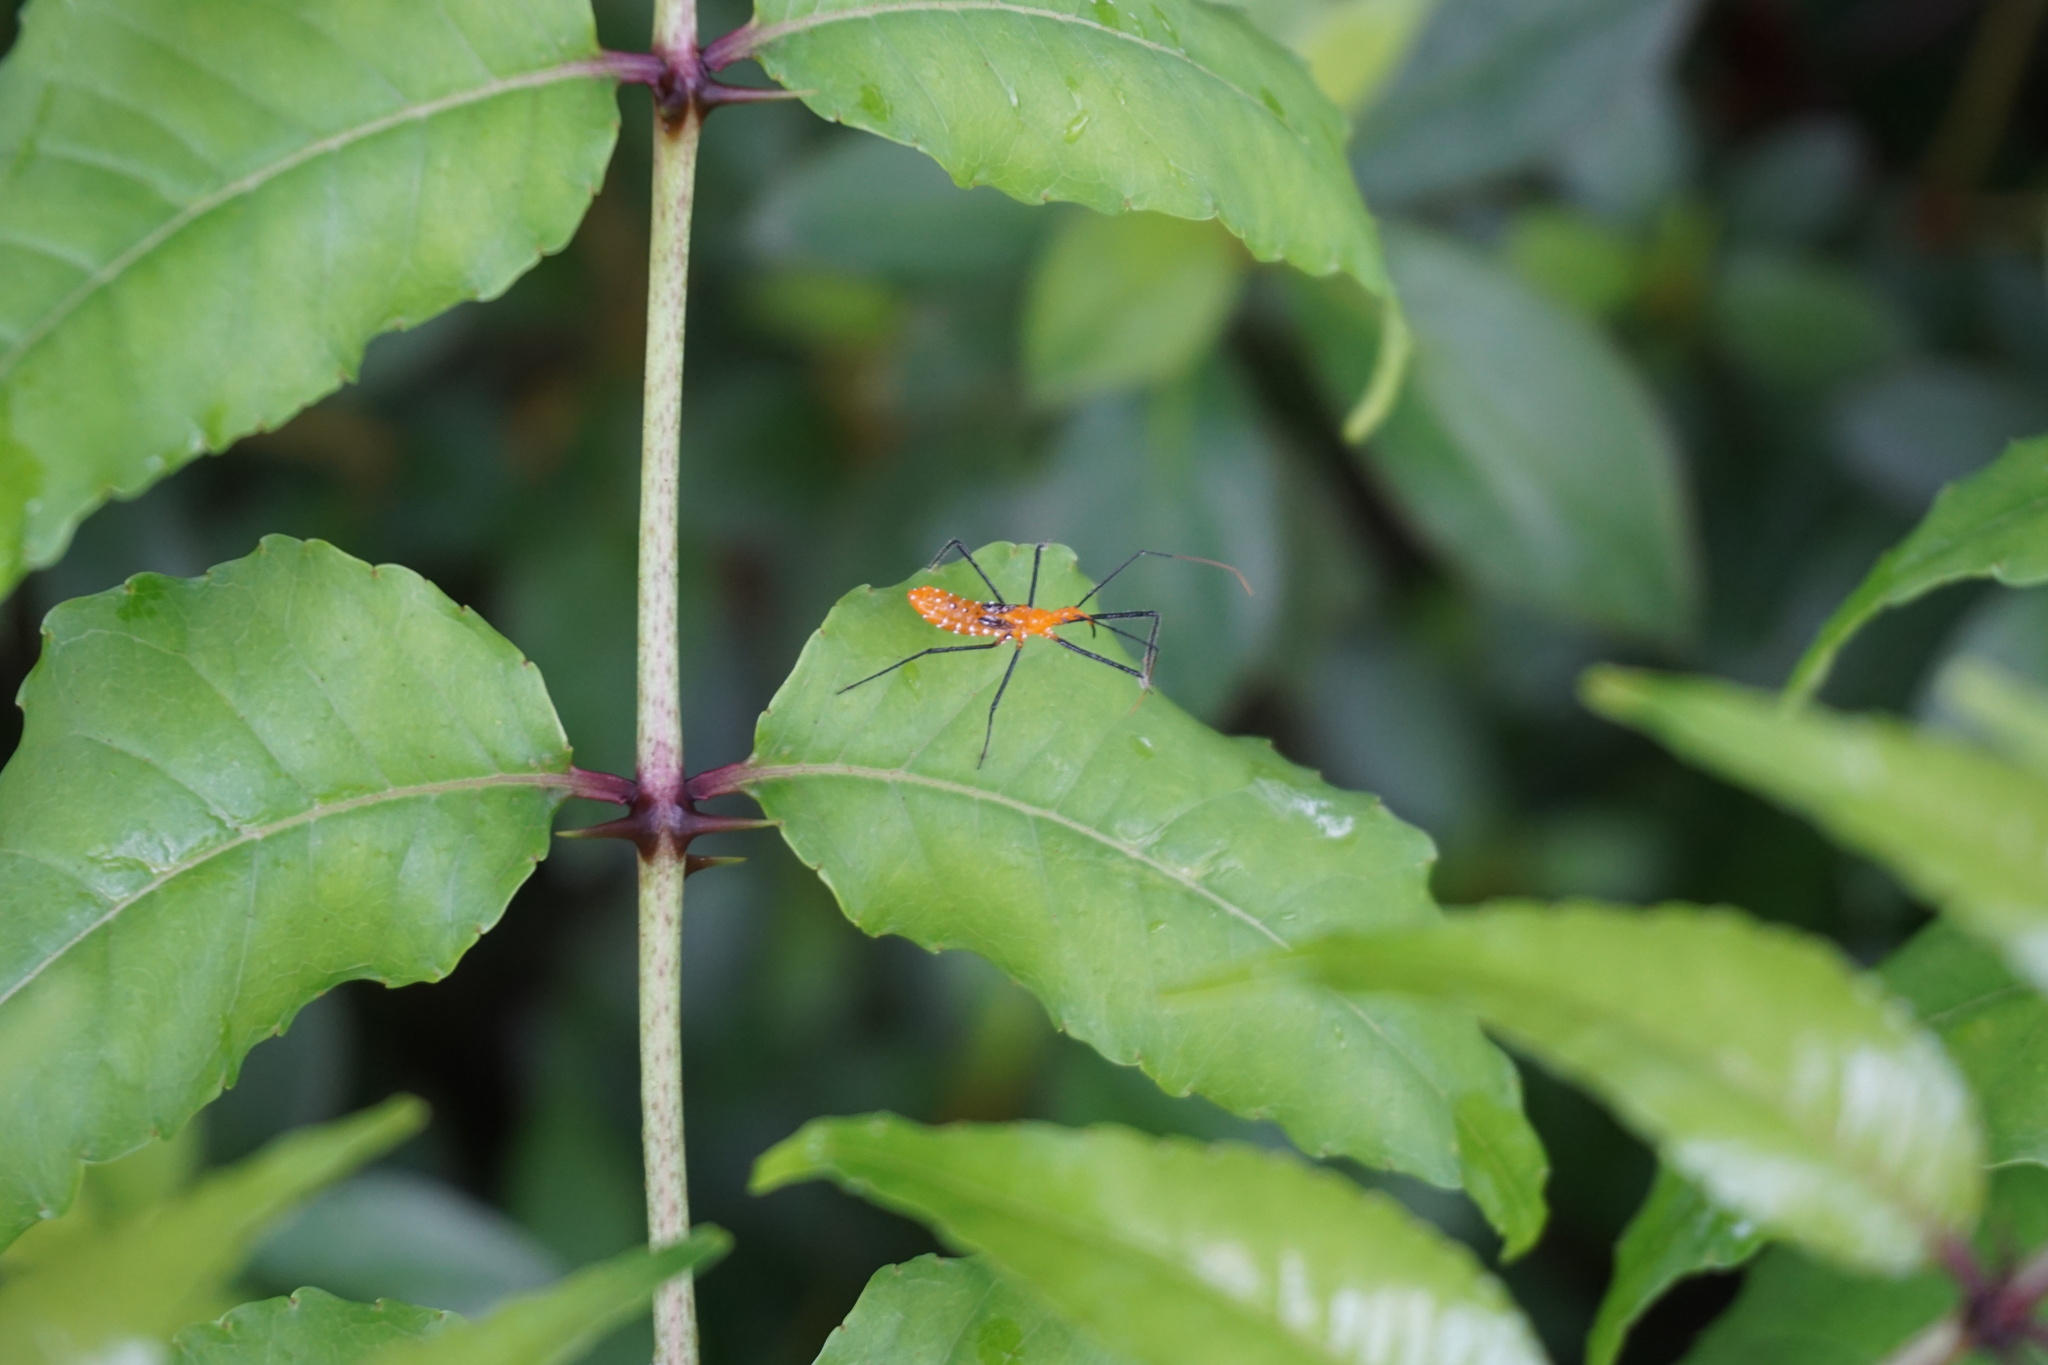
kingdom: Animalia
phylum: Arthropoda
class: Insecta
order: Hemiptera
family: Reduviidae
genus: Zelus
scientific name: Zelus longipes
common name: Milkweed assassin bug
